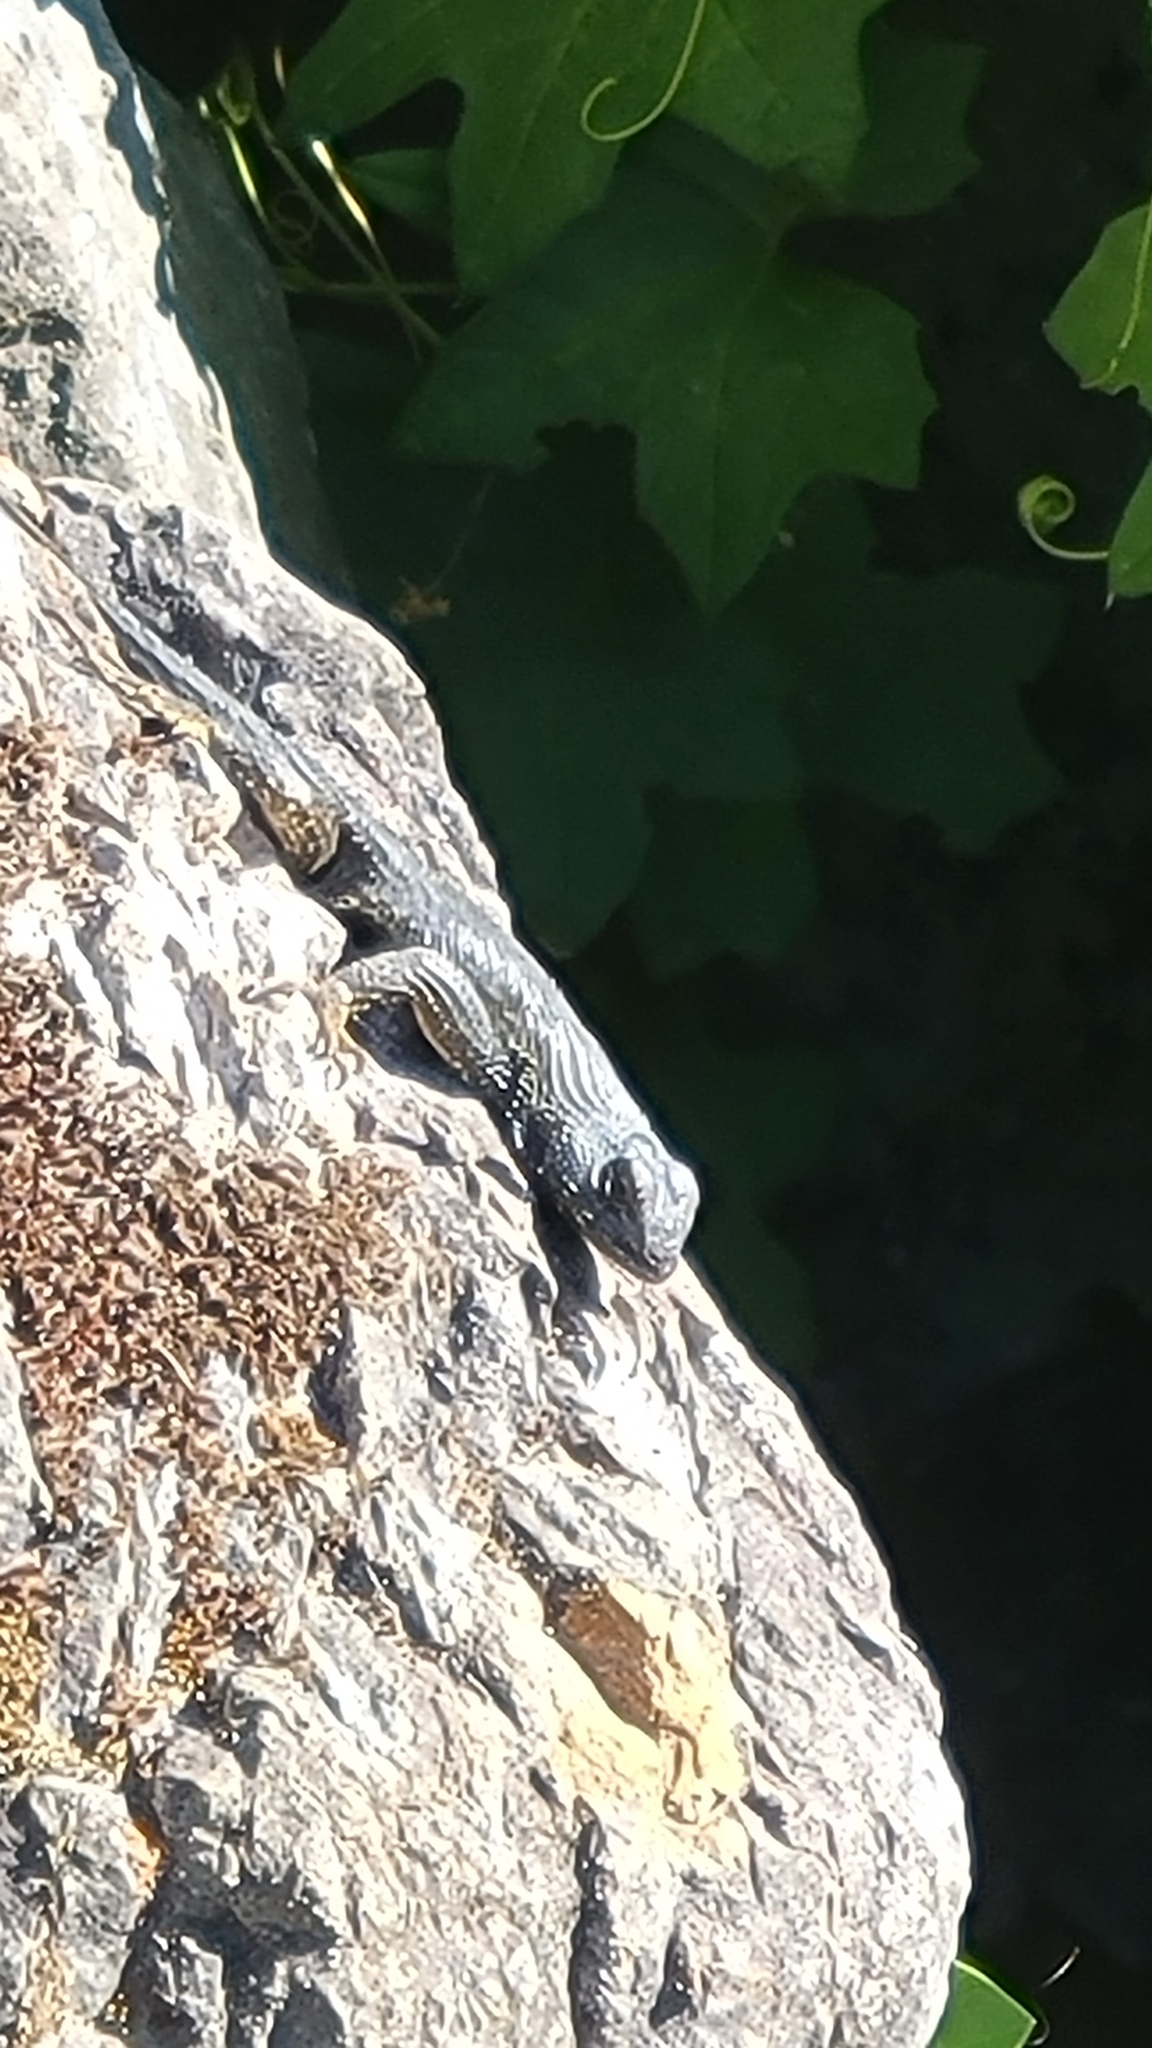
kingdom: Animalia
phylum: Chordata
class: Squamata
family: Phrynosomatidae
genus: Sceloporus
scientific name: Sceloporus occidentalis
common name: Western fence lizard
